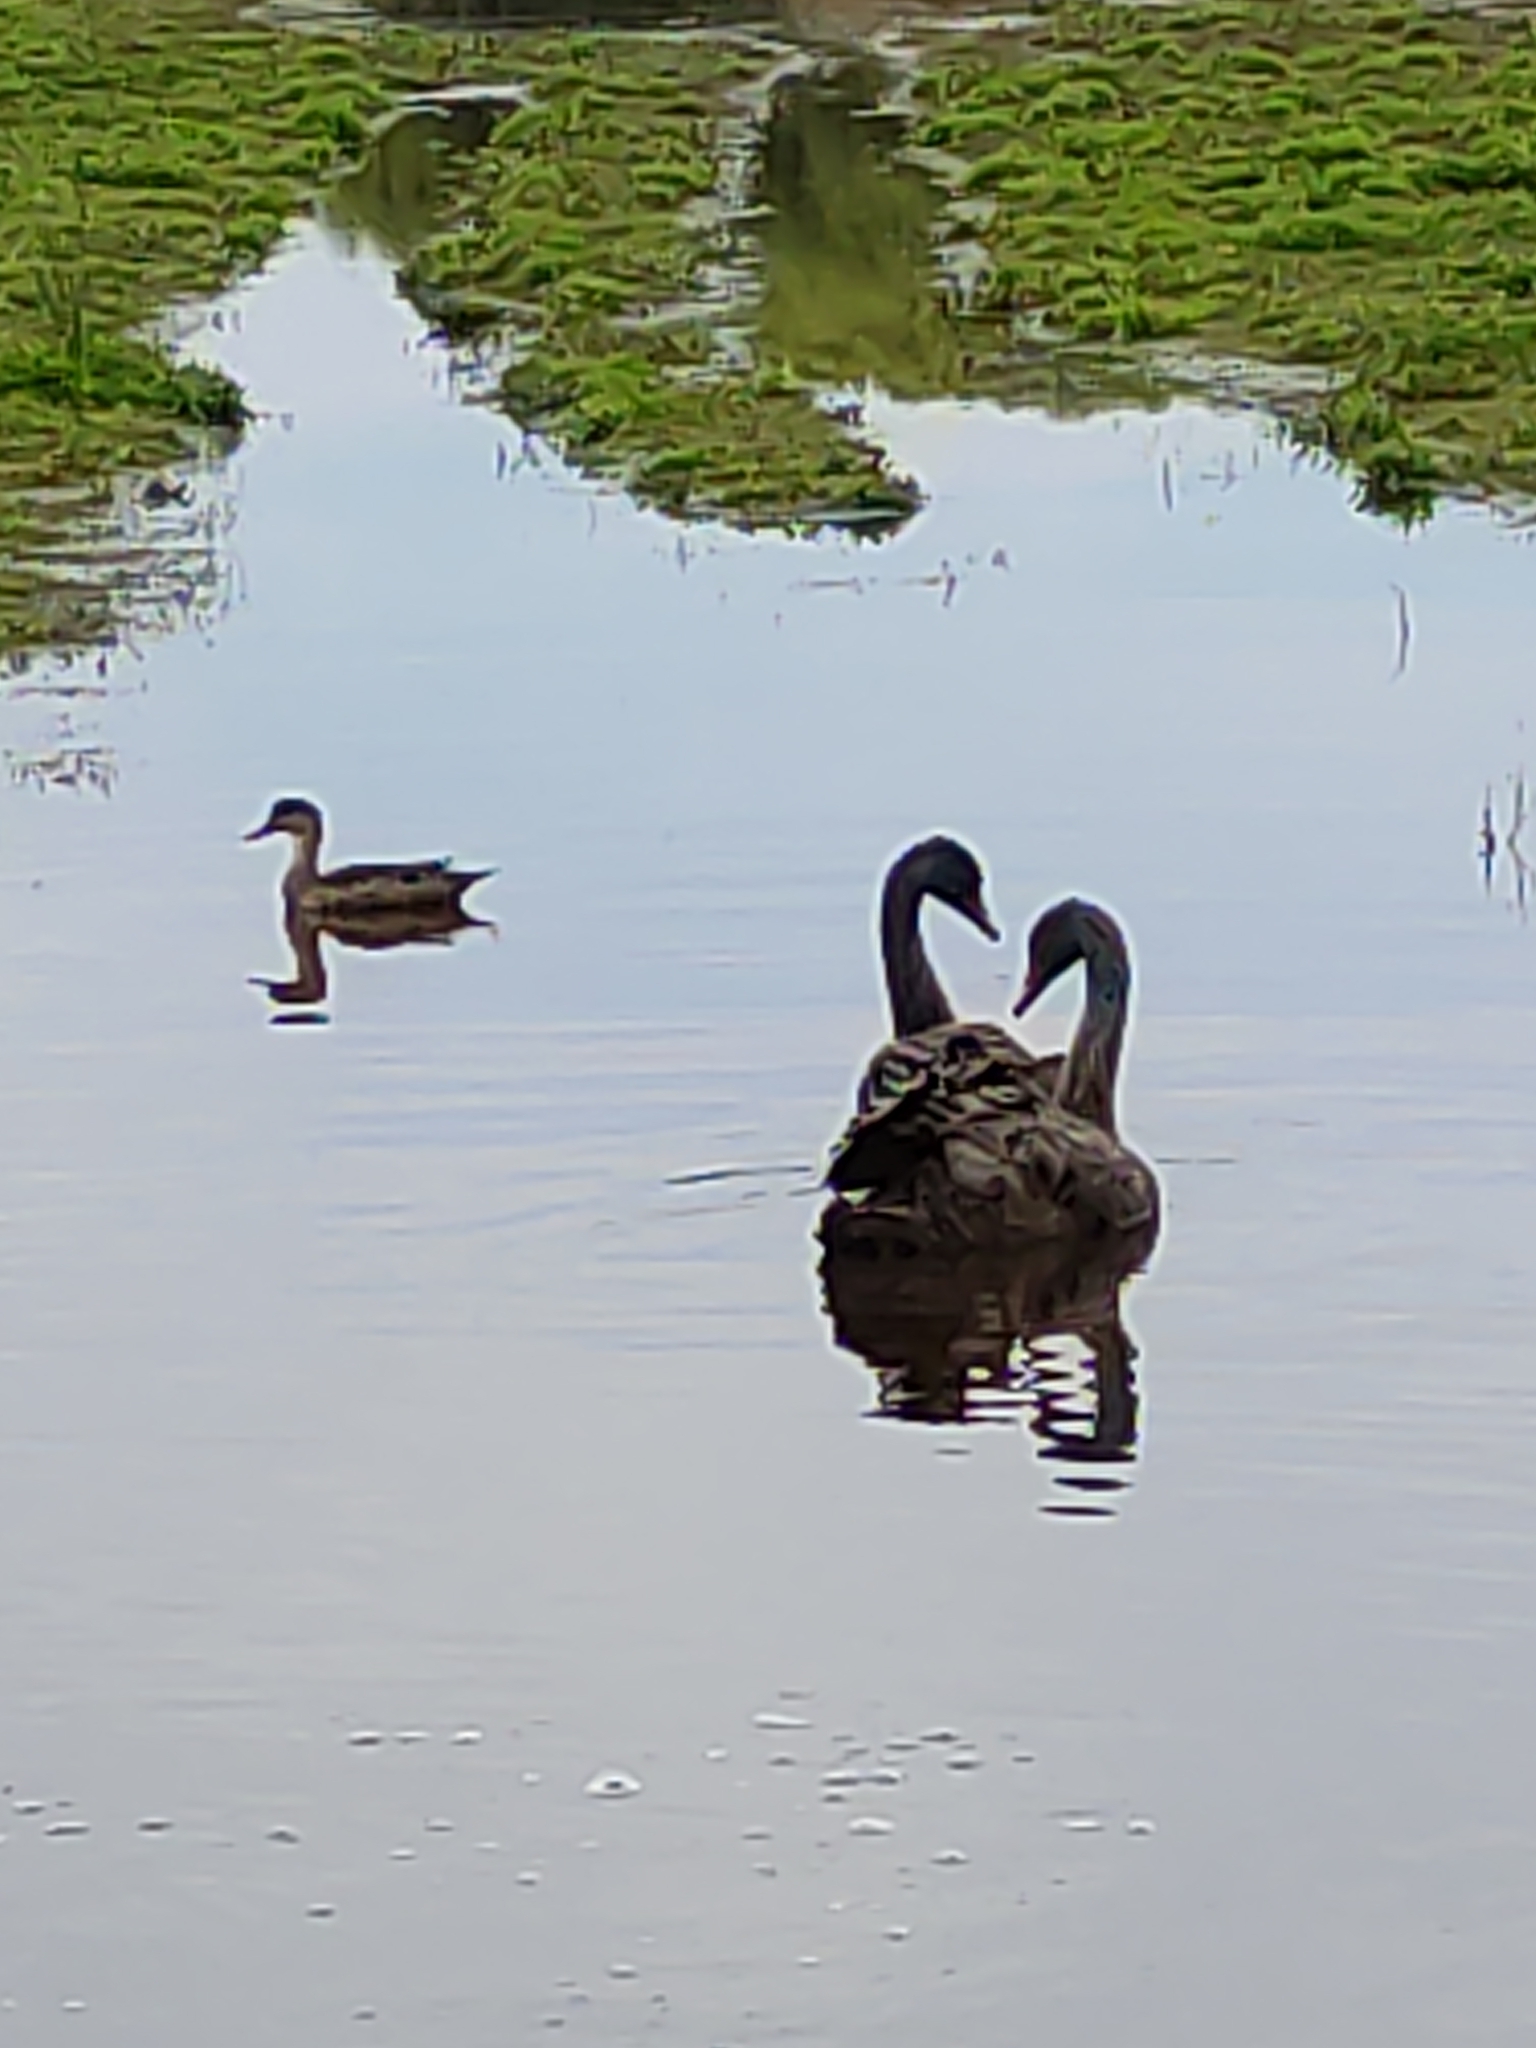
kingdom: Animalia
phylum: Chordata
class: Aves
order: Anseriformes
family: Anatidae
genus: Cygnus
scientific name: Cygnus atratus
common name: Black swan
